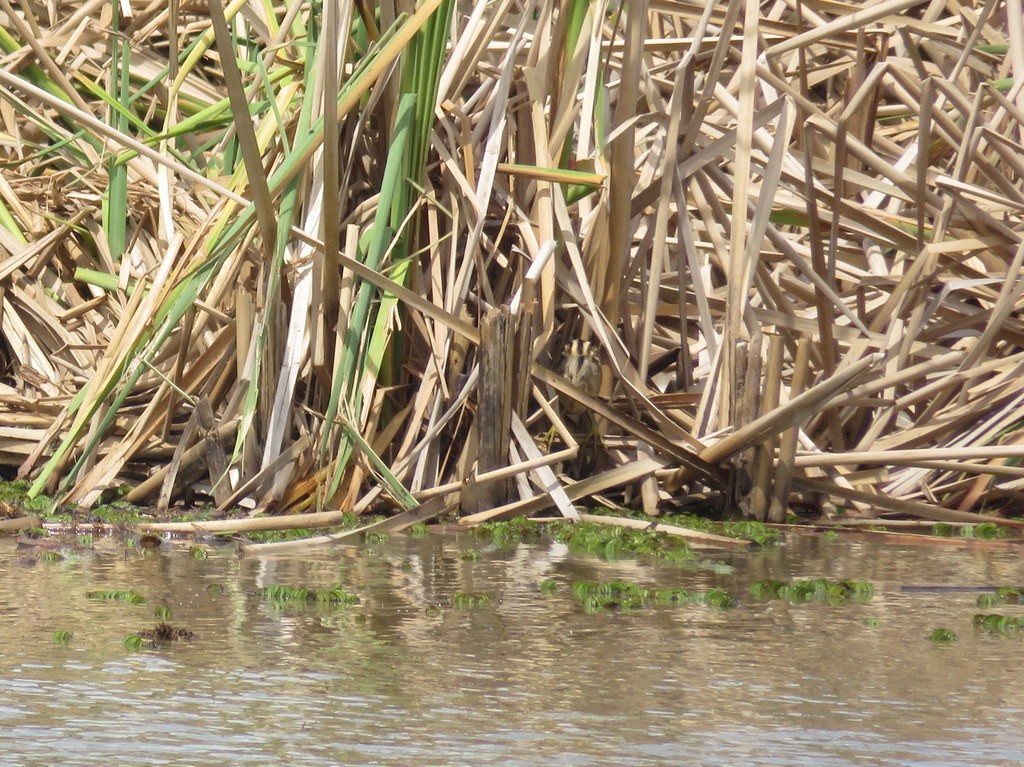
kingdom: Animalia
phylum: Chordata
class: Aves
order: Pelecaniformes
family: Ardeidae
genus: Ixobrychus
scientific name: Ixobrychus involucris
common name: Stripe-backed bittern
